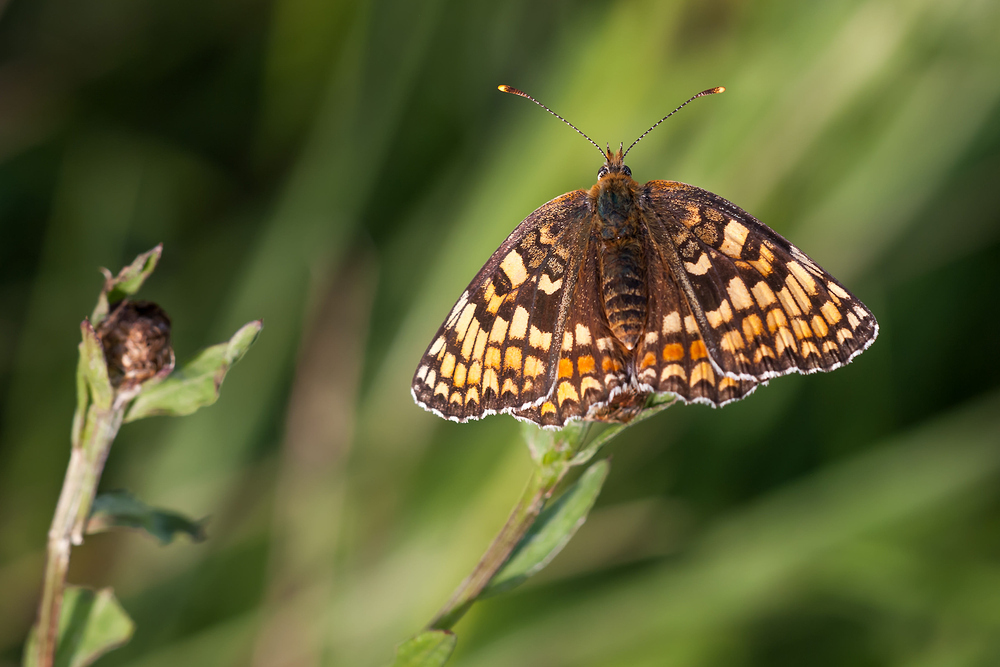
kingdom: Animalia
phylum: Arthropoda
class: Insecta
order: Lepidoptera
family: Nymphalidae
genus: Melitaea
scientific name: Melitaea phoebe
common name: Knapweed fritillary
